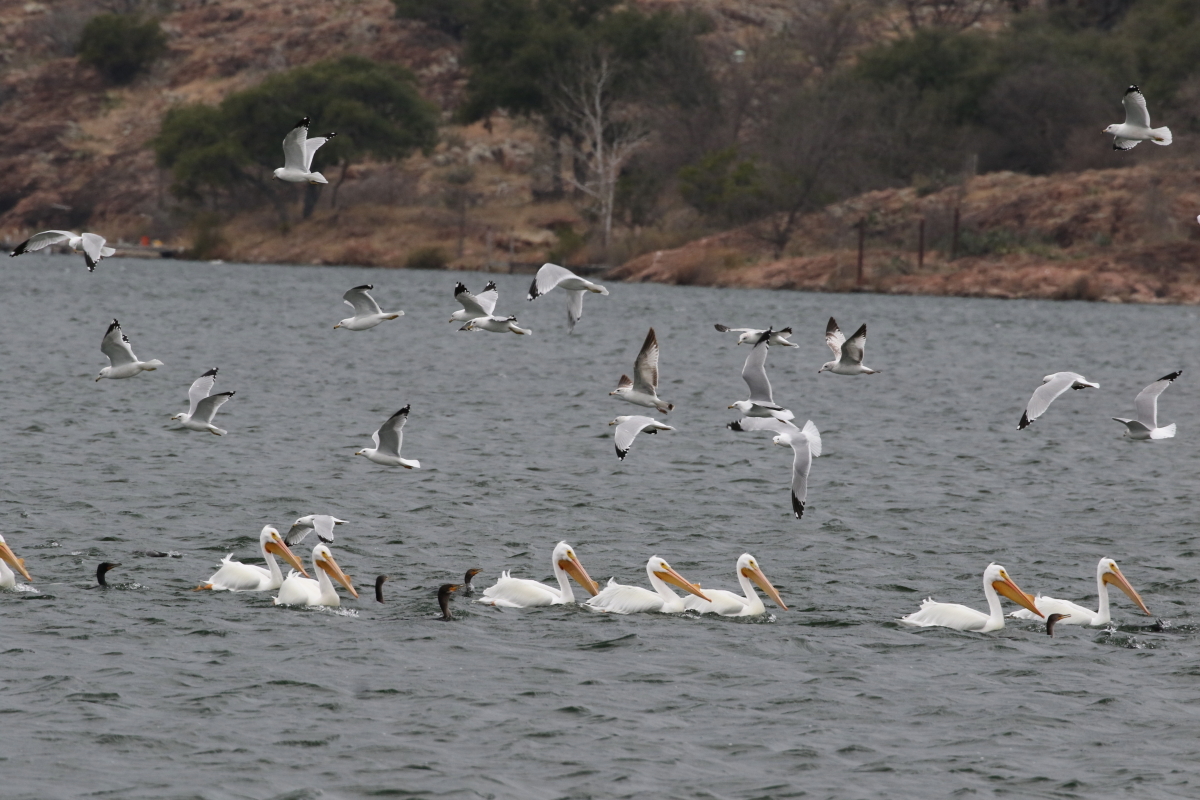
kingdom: Animalia
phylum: Chordata
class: Aves
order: Charadriiformes
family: Laridae
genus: Larus
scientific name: Larus delawarensis
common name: Ring-billed gull
